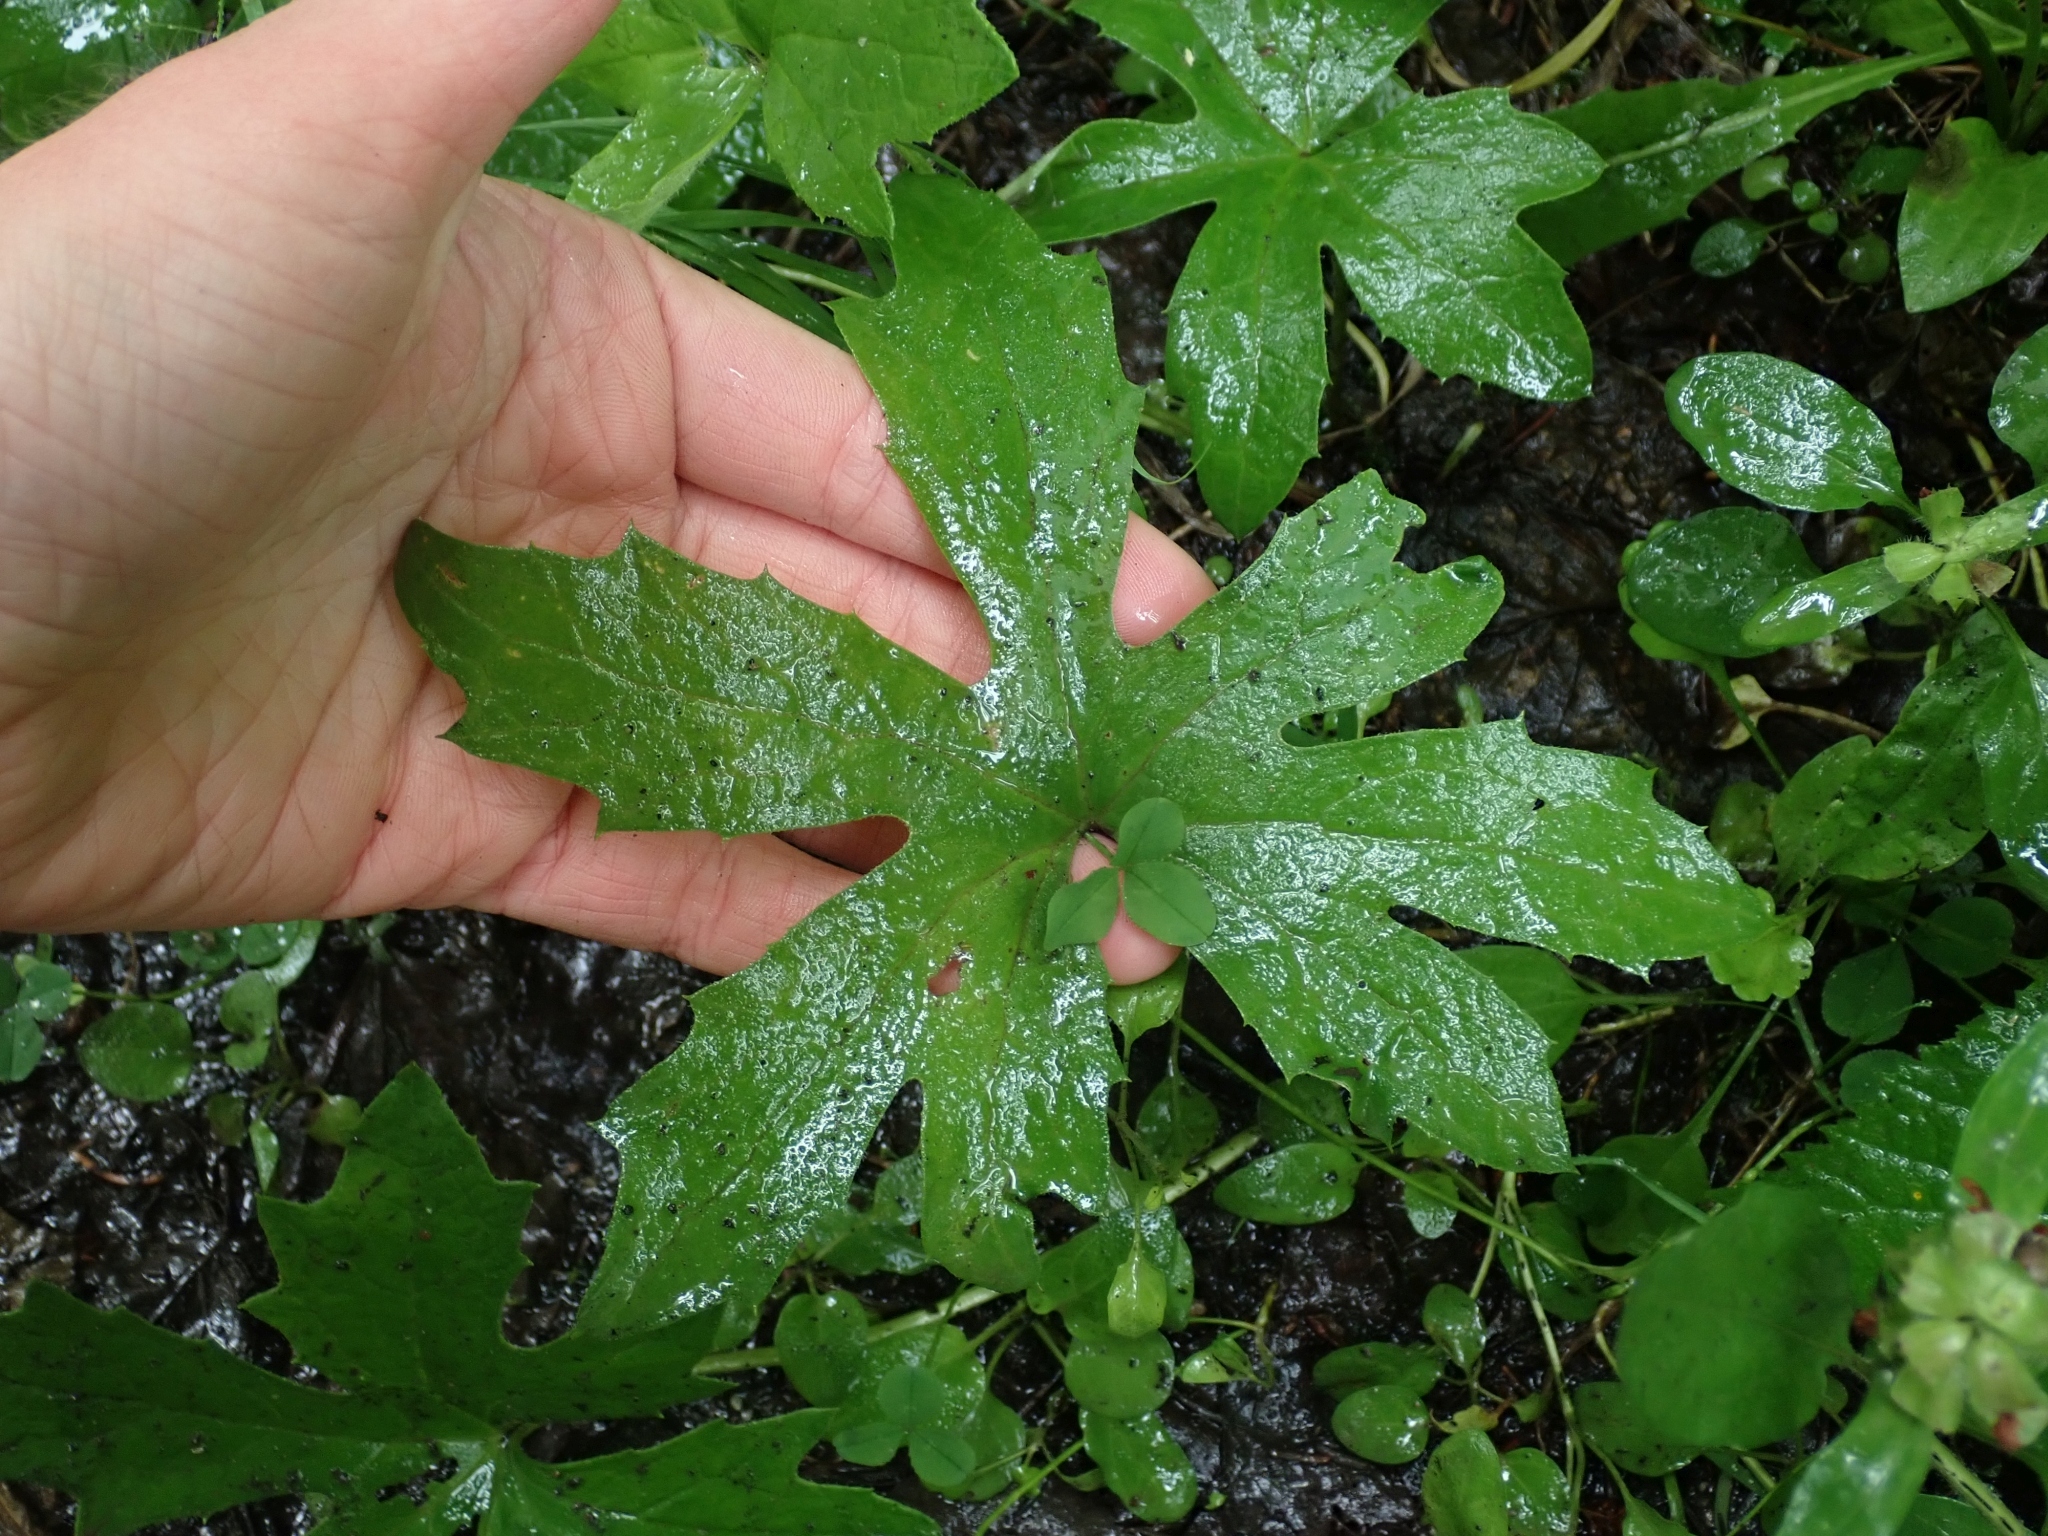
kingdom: Plantae
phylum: Tracheophyta
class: Magnoliopsida
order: Asterales
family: Asteraceae
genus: Petasites
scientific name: Petasites frigidus
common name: Arctic butterbur
